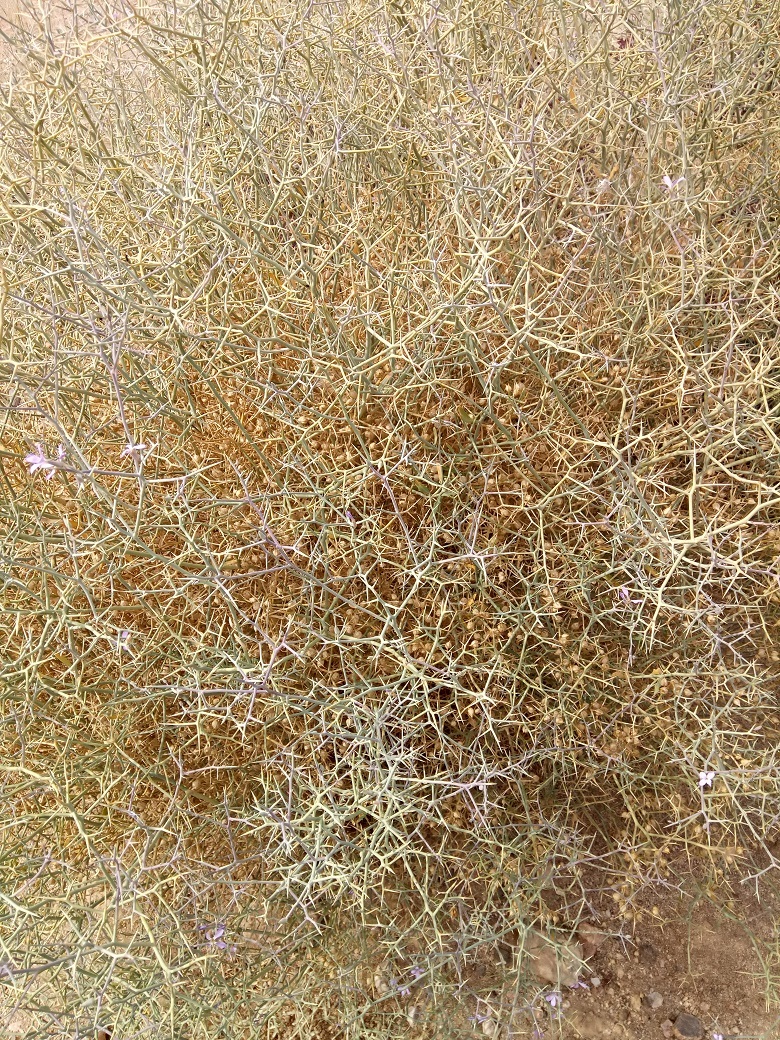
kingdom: Plantae
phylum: Tracheophyta
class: Magnoliopsida
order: Brassicales
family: Brassicaceae
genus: Zilla
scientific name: Zilla spinosa
